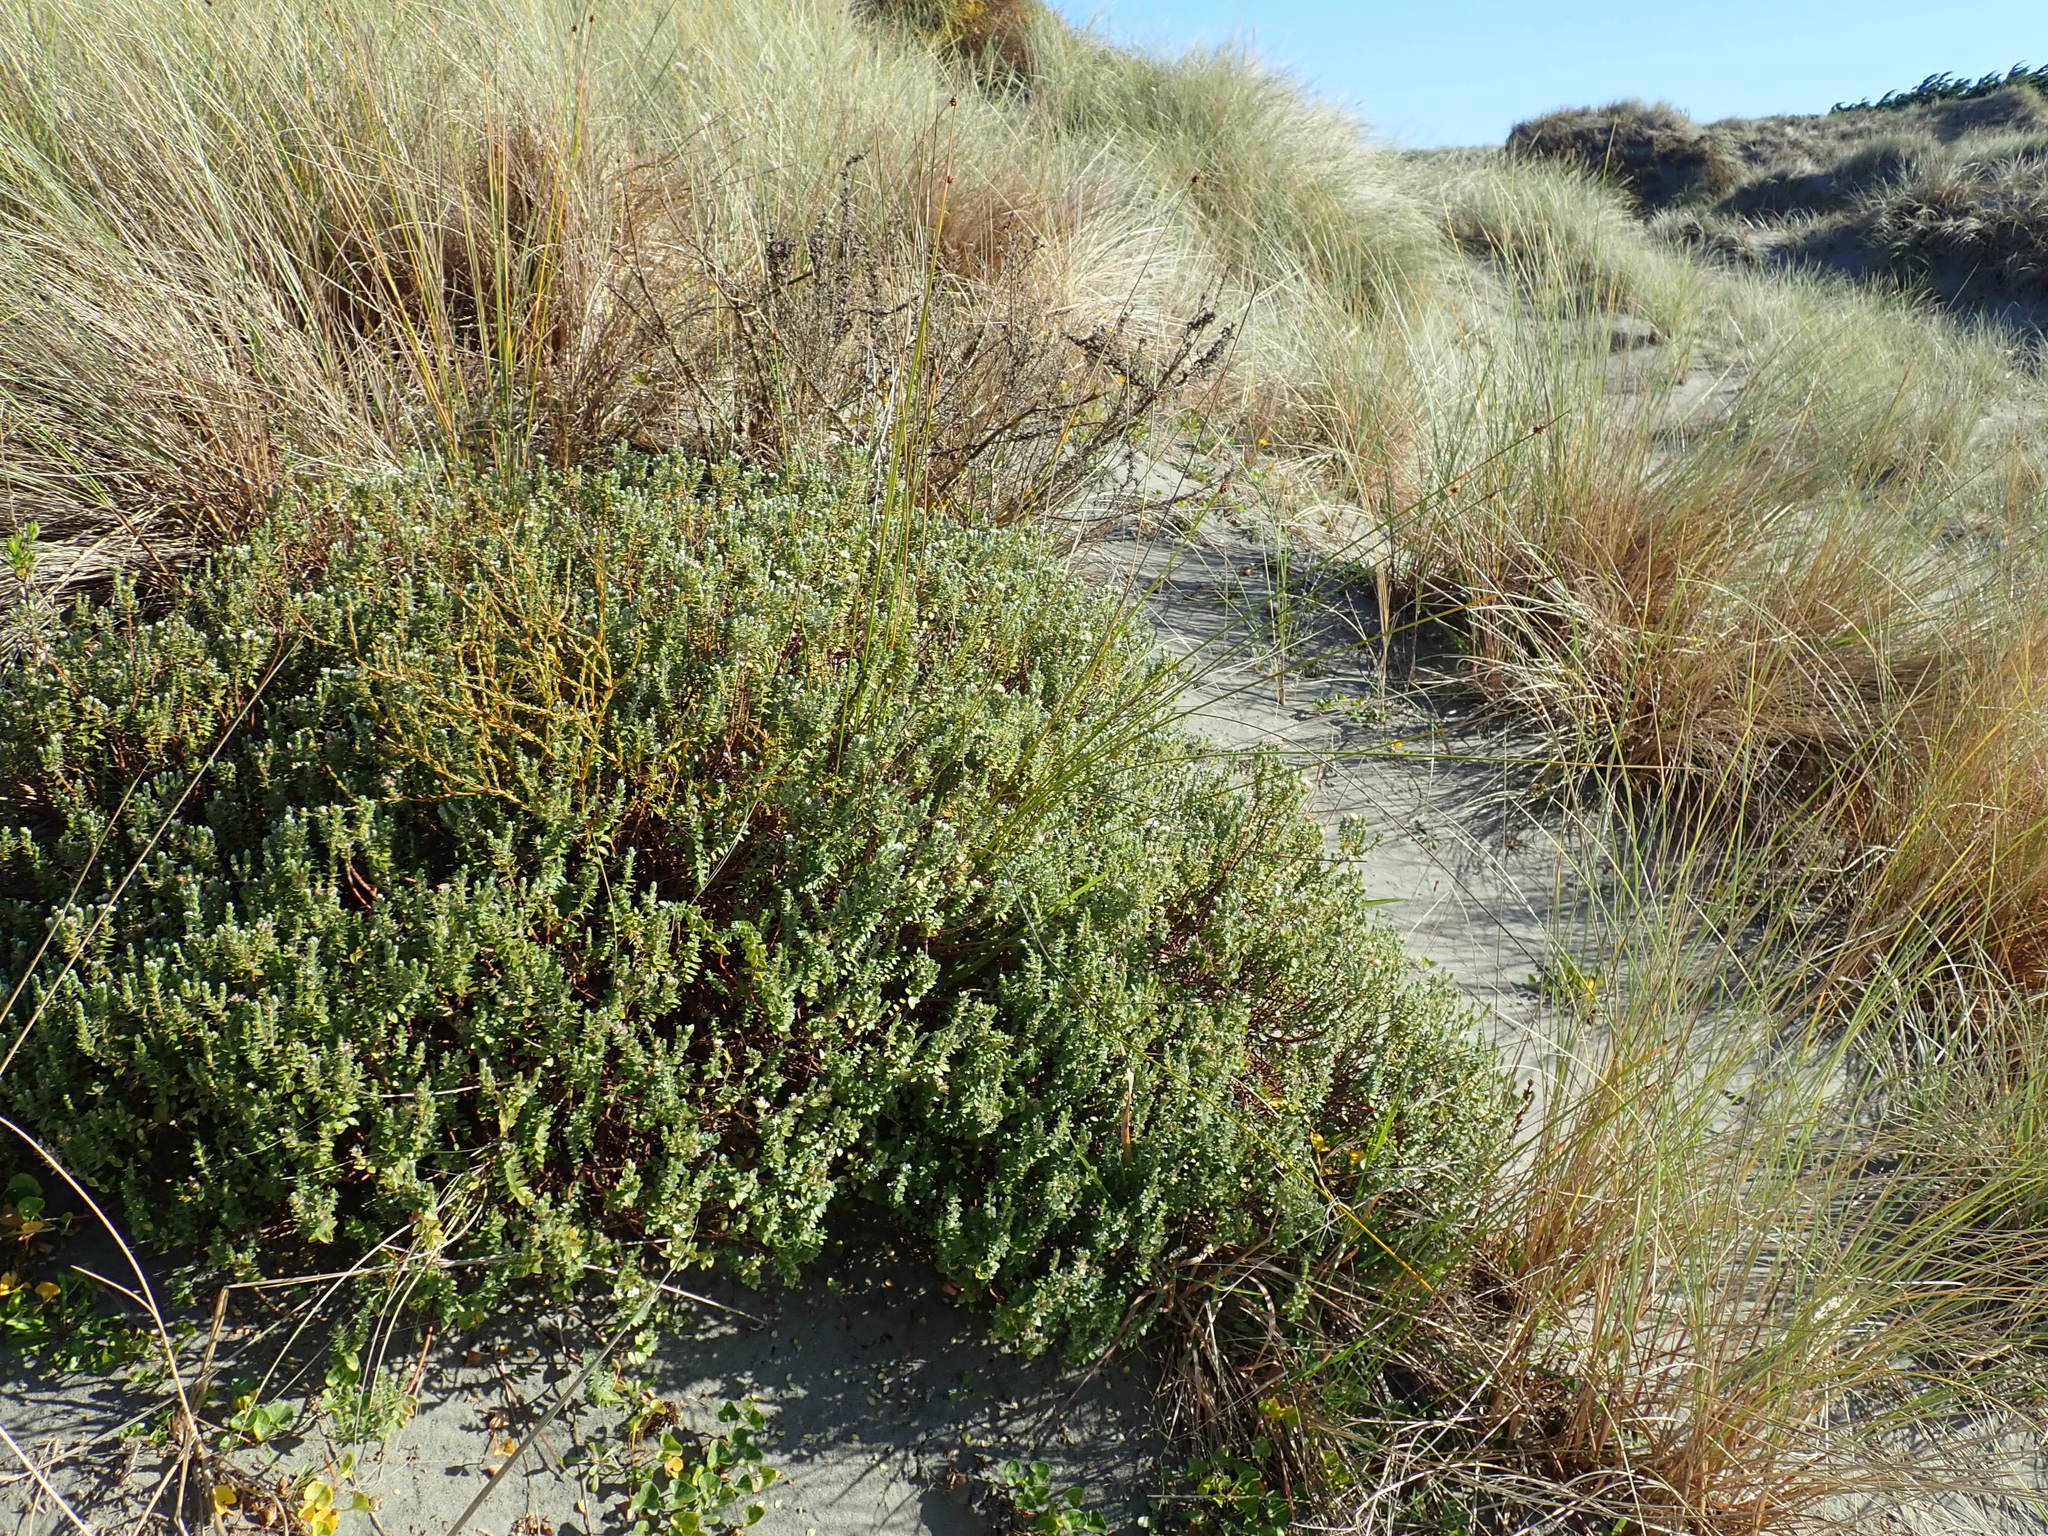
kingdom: Plantae
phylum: Tracheophyta
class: Magnoliopsida
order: Gentianales
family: Rubiaceae
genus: Coprosma
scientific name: Coprosma acerosa
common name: Sand coprosma
